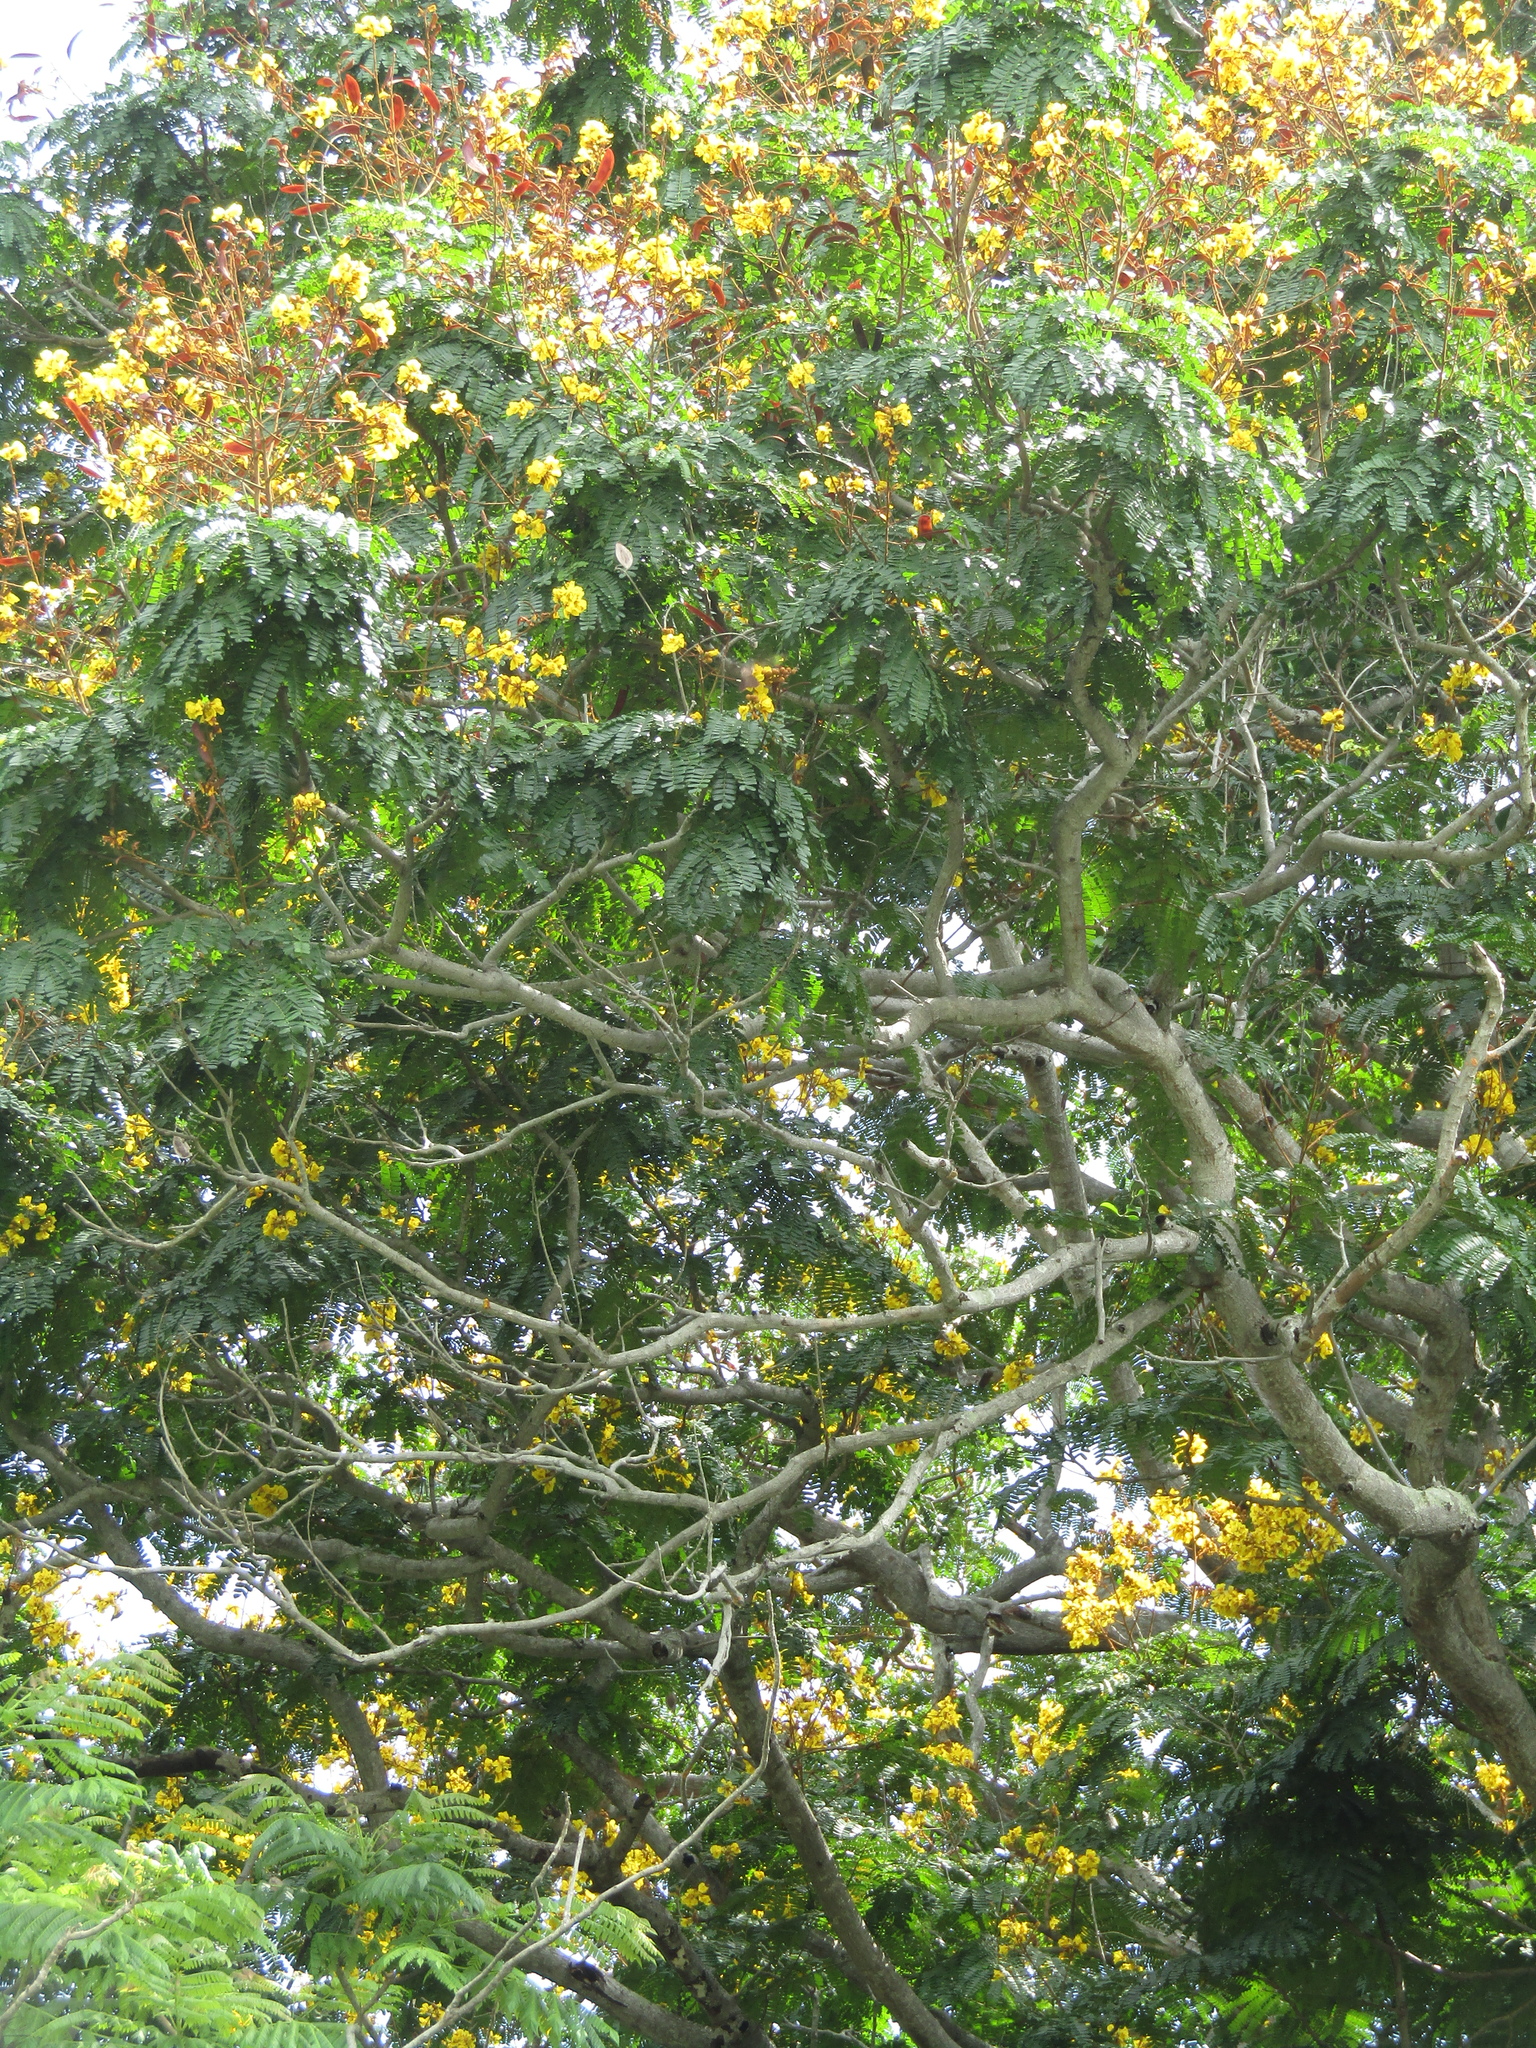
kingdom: Plantae
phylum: Tracheophyta
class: Magnoliopsida
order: Fabales
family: Fabaceae
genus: Peltophorum
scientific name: Peltophorum pterocarpum
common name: Yellow flame
